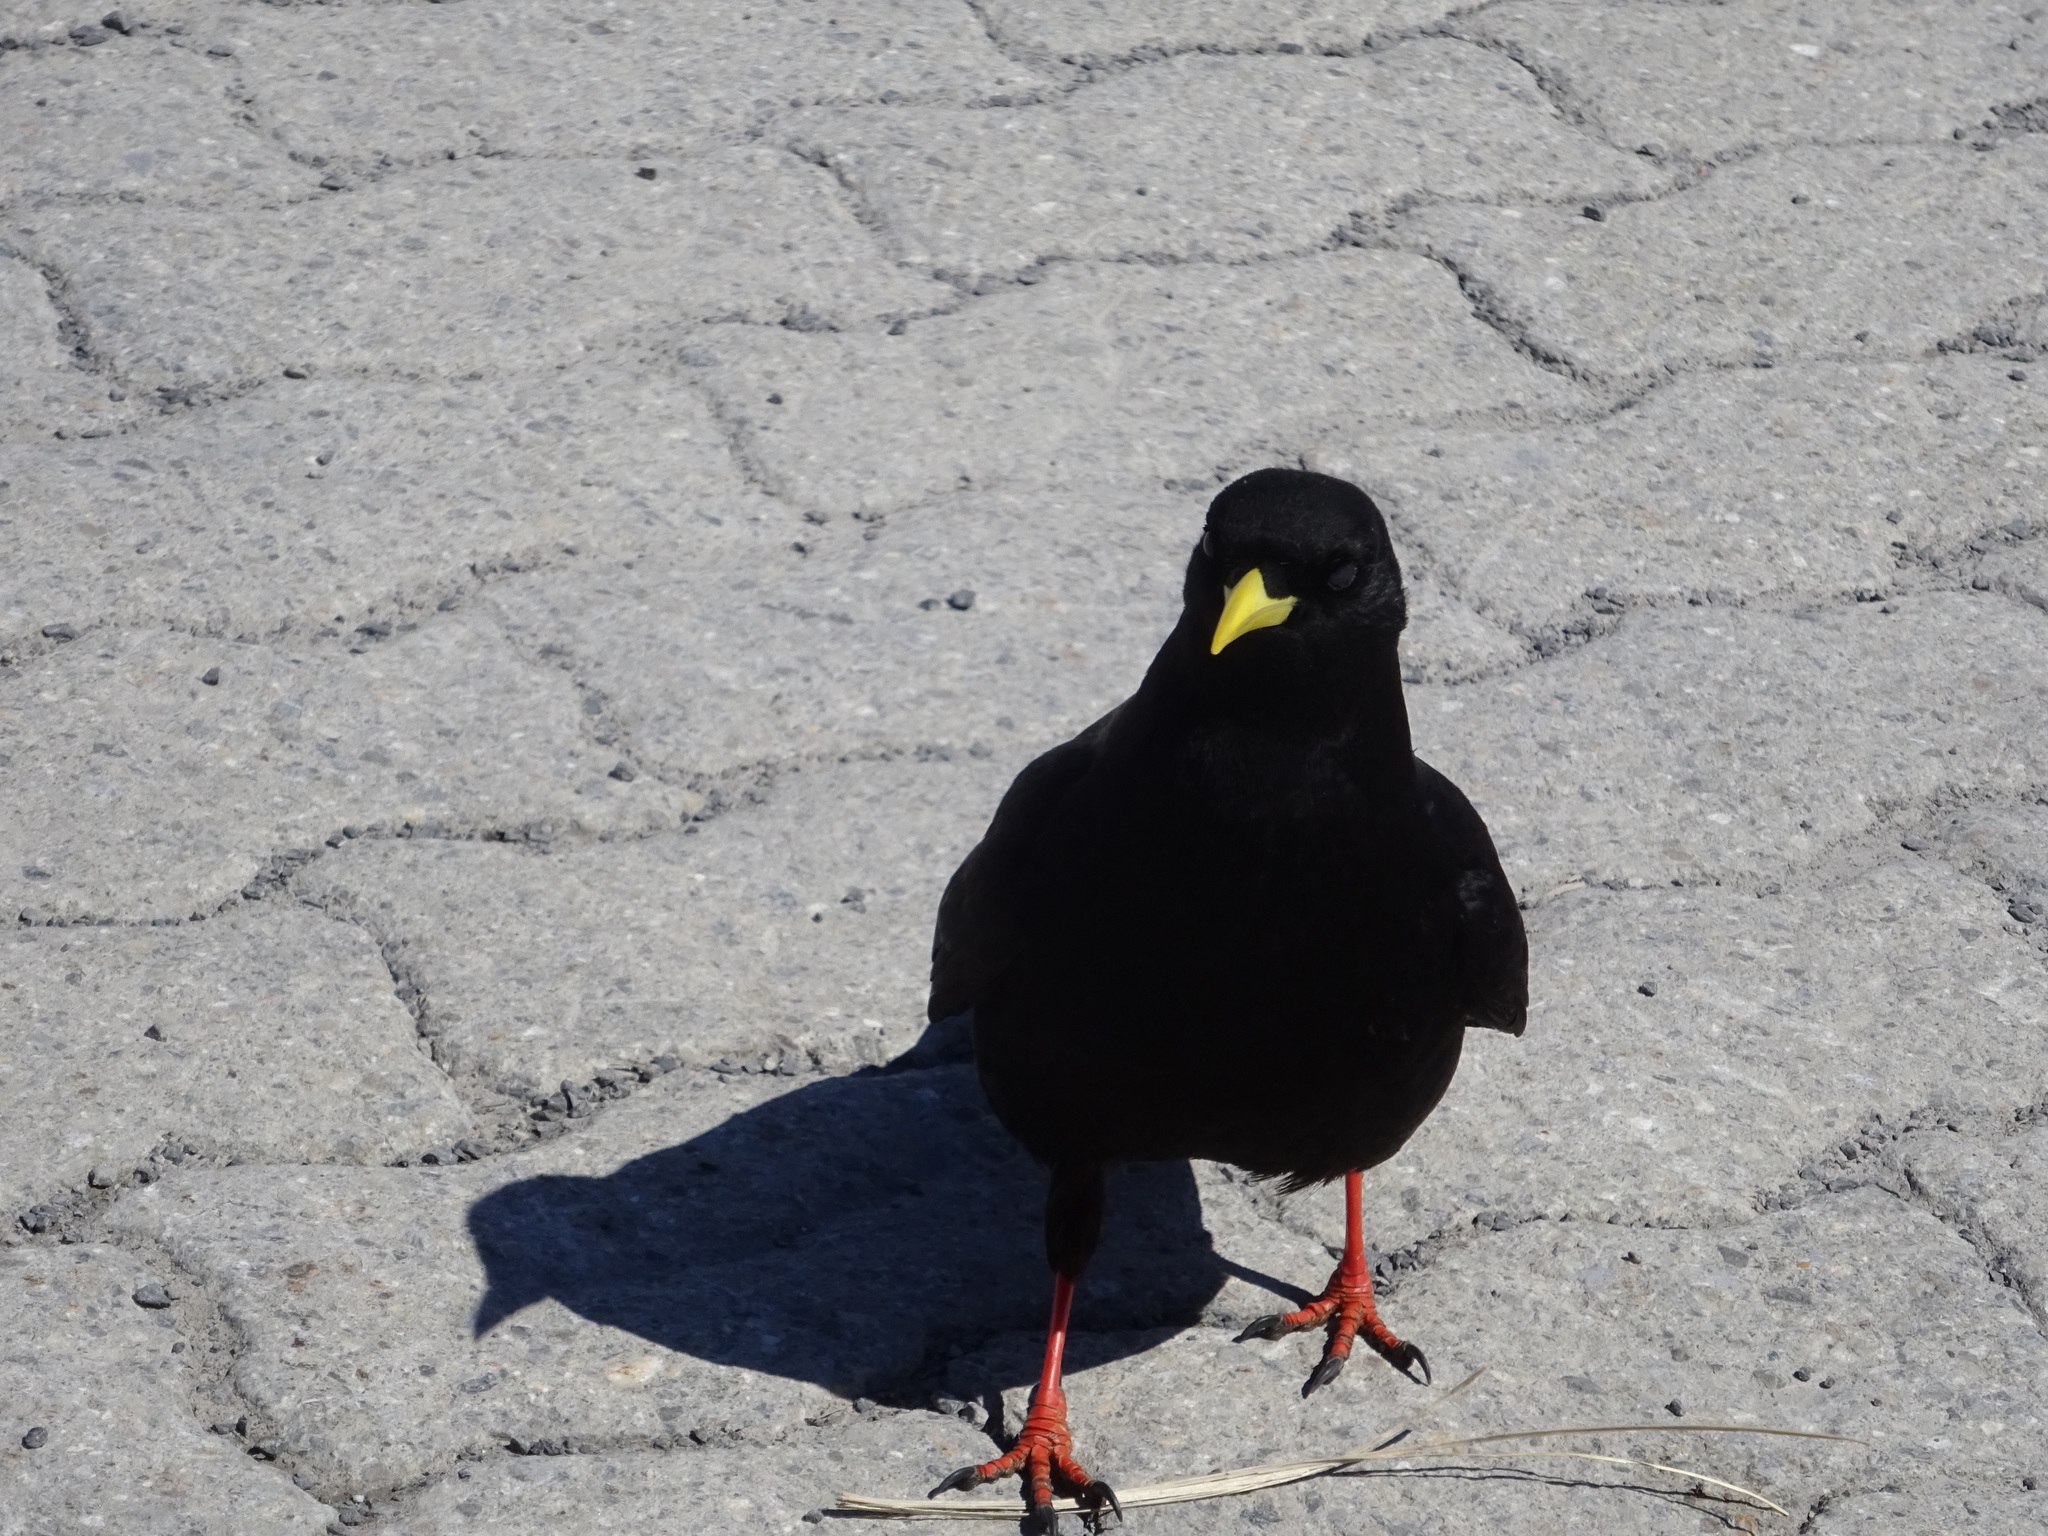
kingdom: Animalia
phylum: Chordata
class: Aves
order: Passeriformes
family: Corvidae
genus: Pyrrhocorax
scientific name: Pyrrhocorax graculus
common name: Alpine chough
